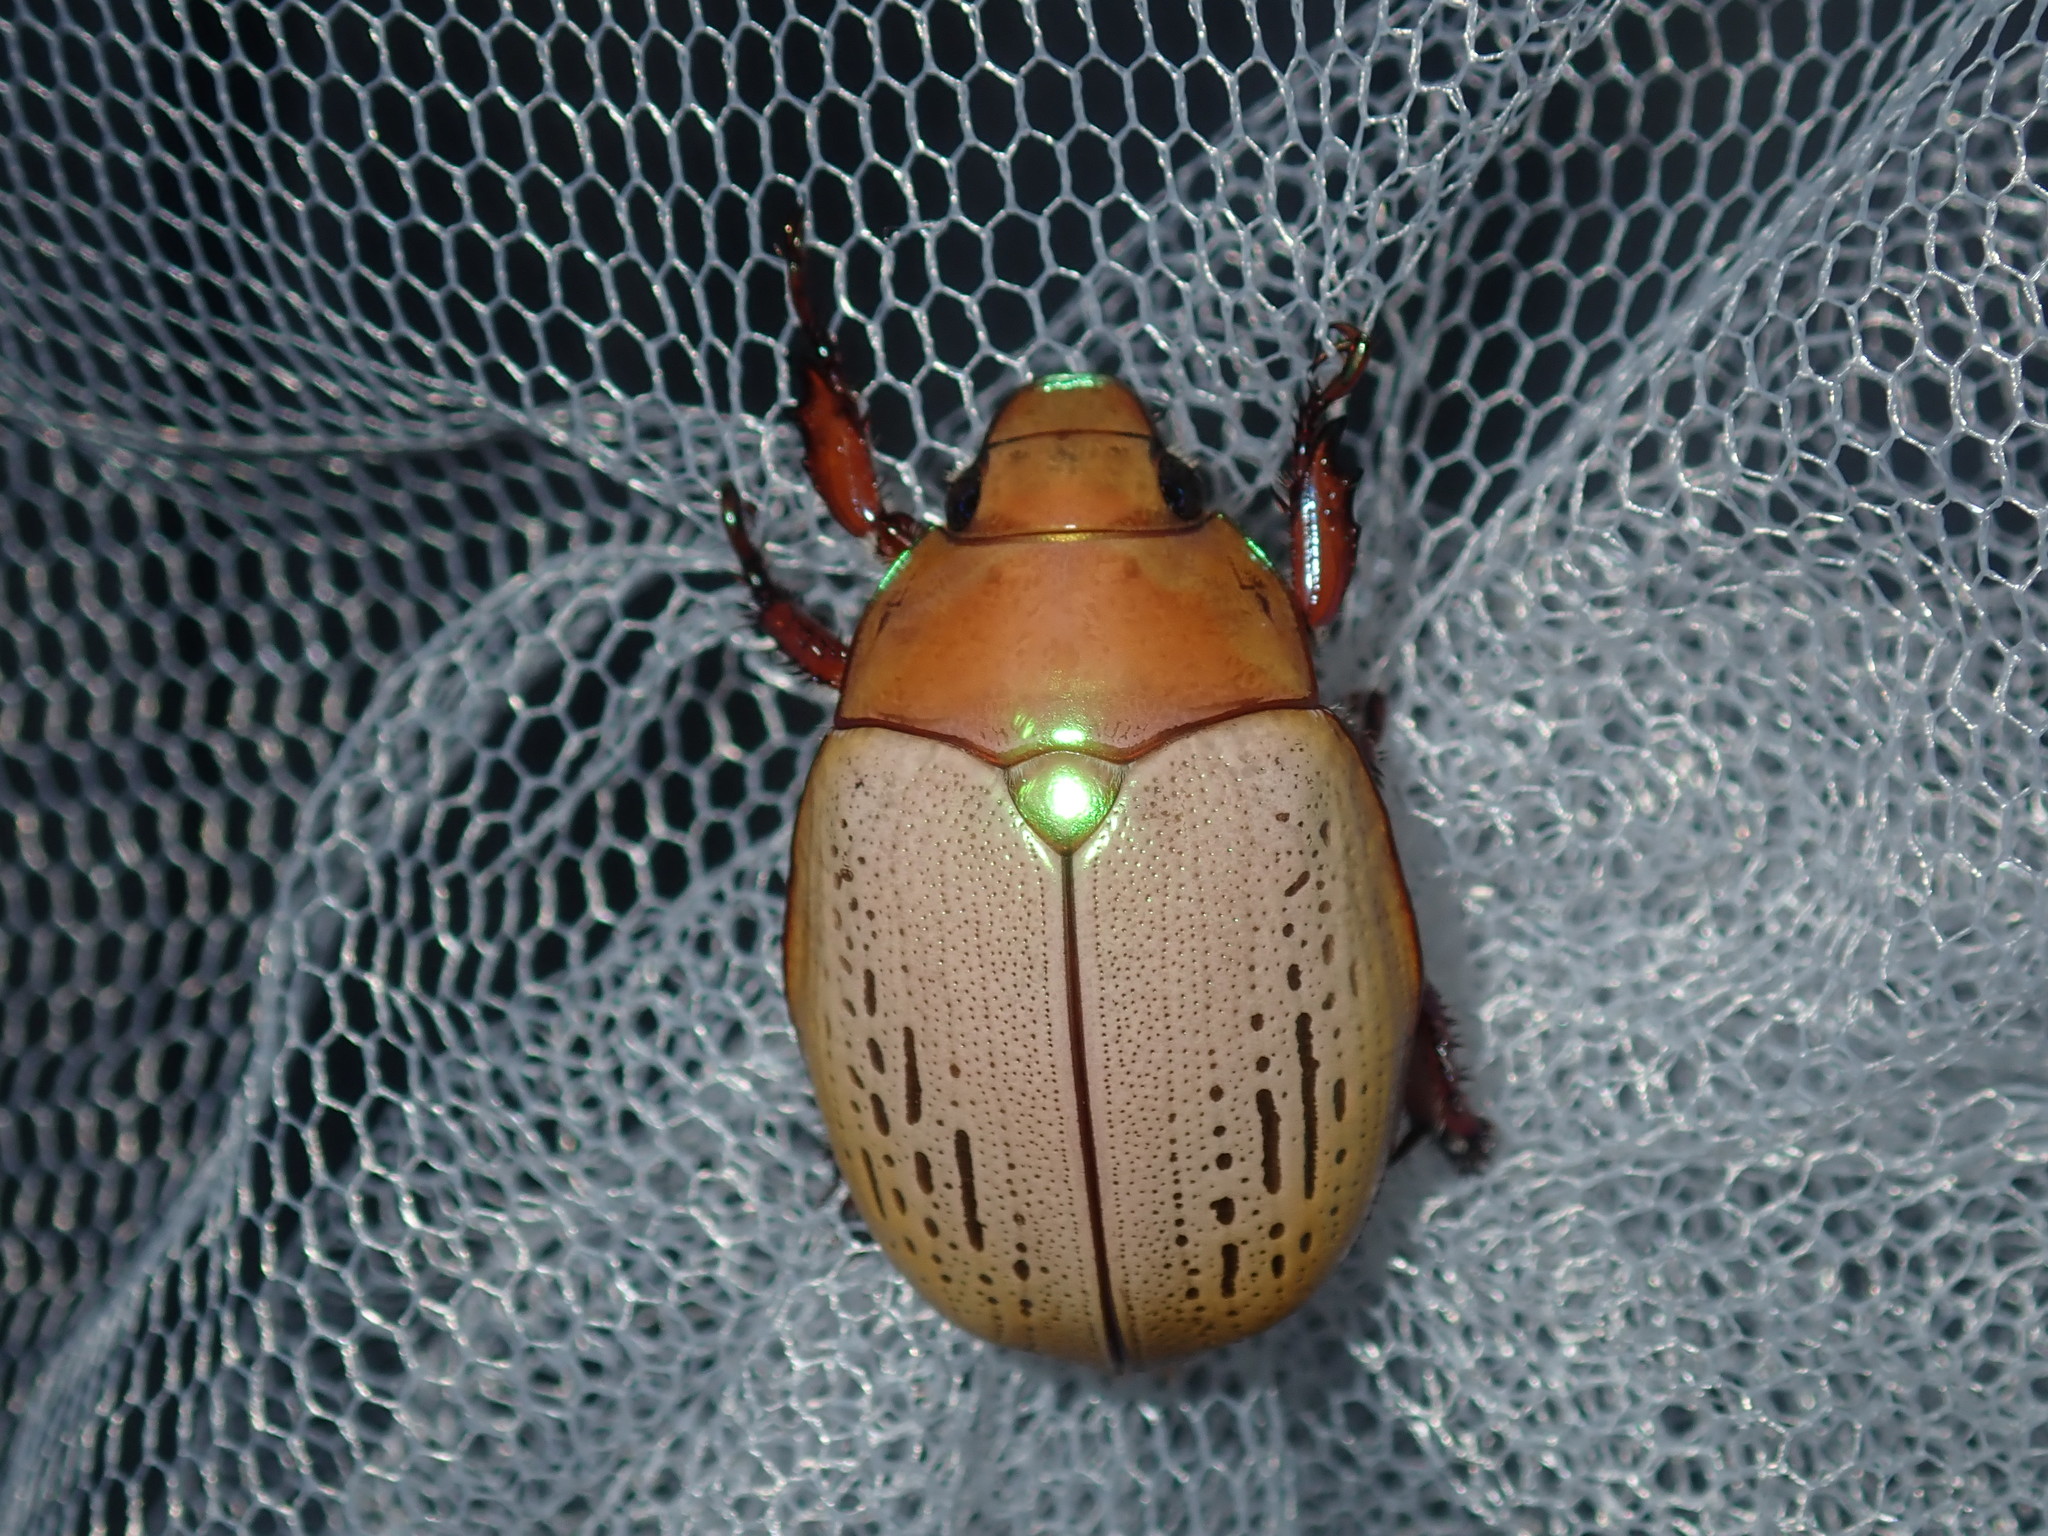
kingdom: Animalia
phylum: Arthropoda
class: Insecta
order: Coleoptera
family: Scarabaeidae
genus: Anoplognathus
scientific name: Anoplognathus olivieri
